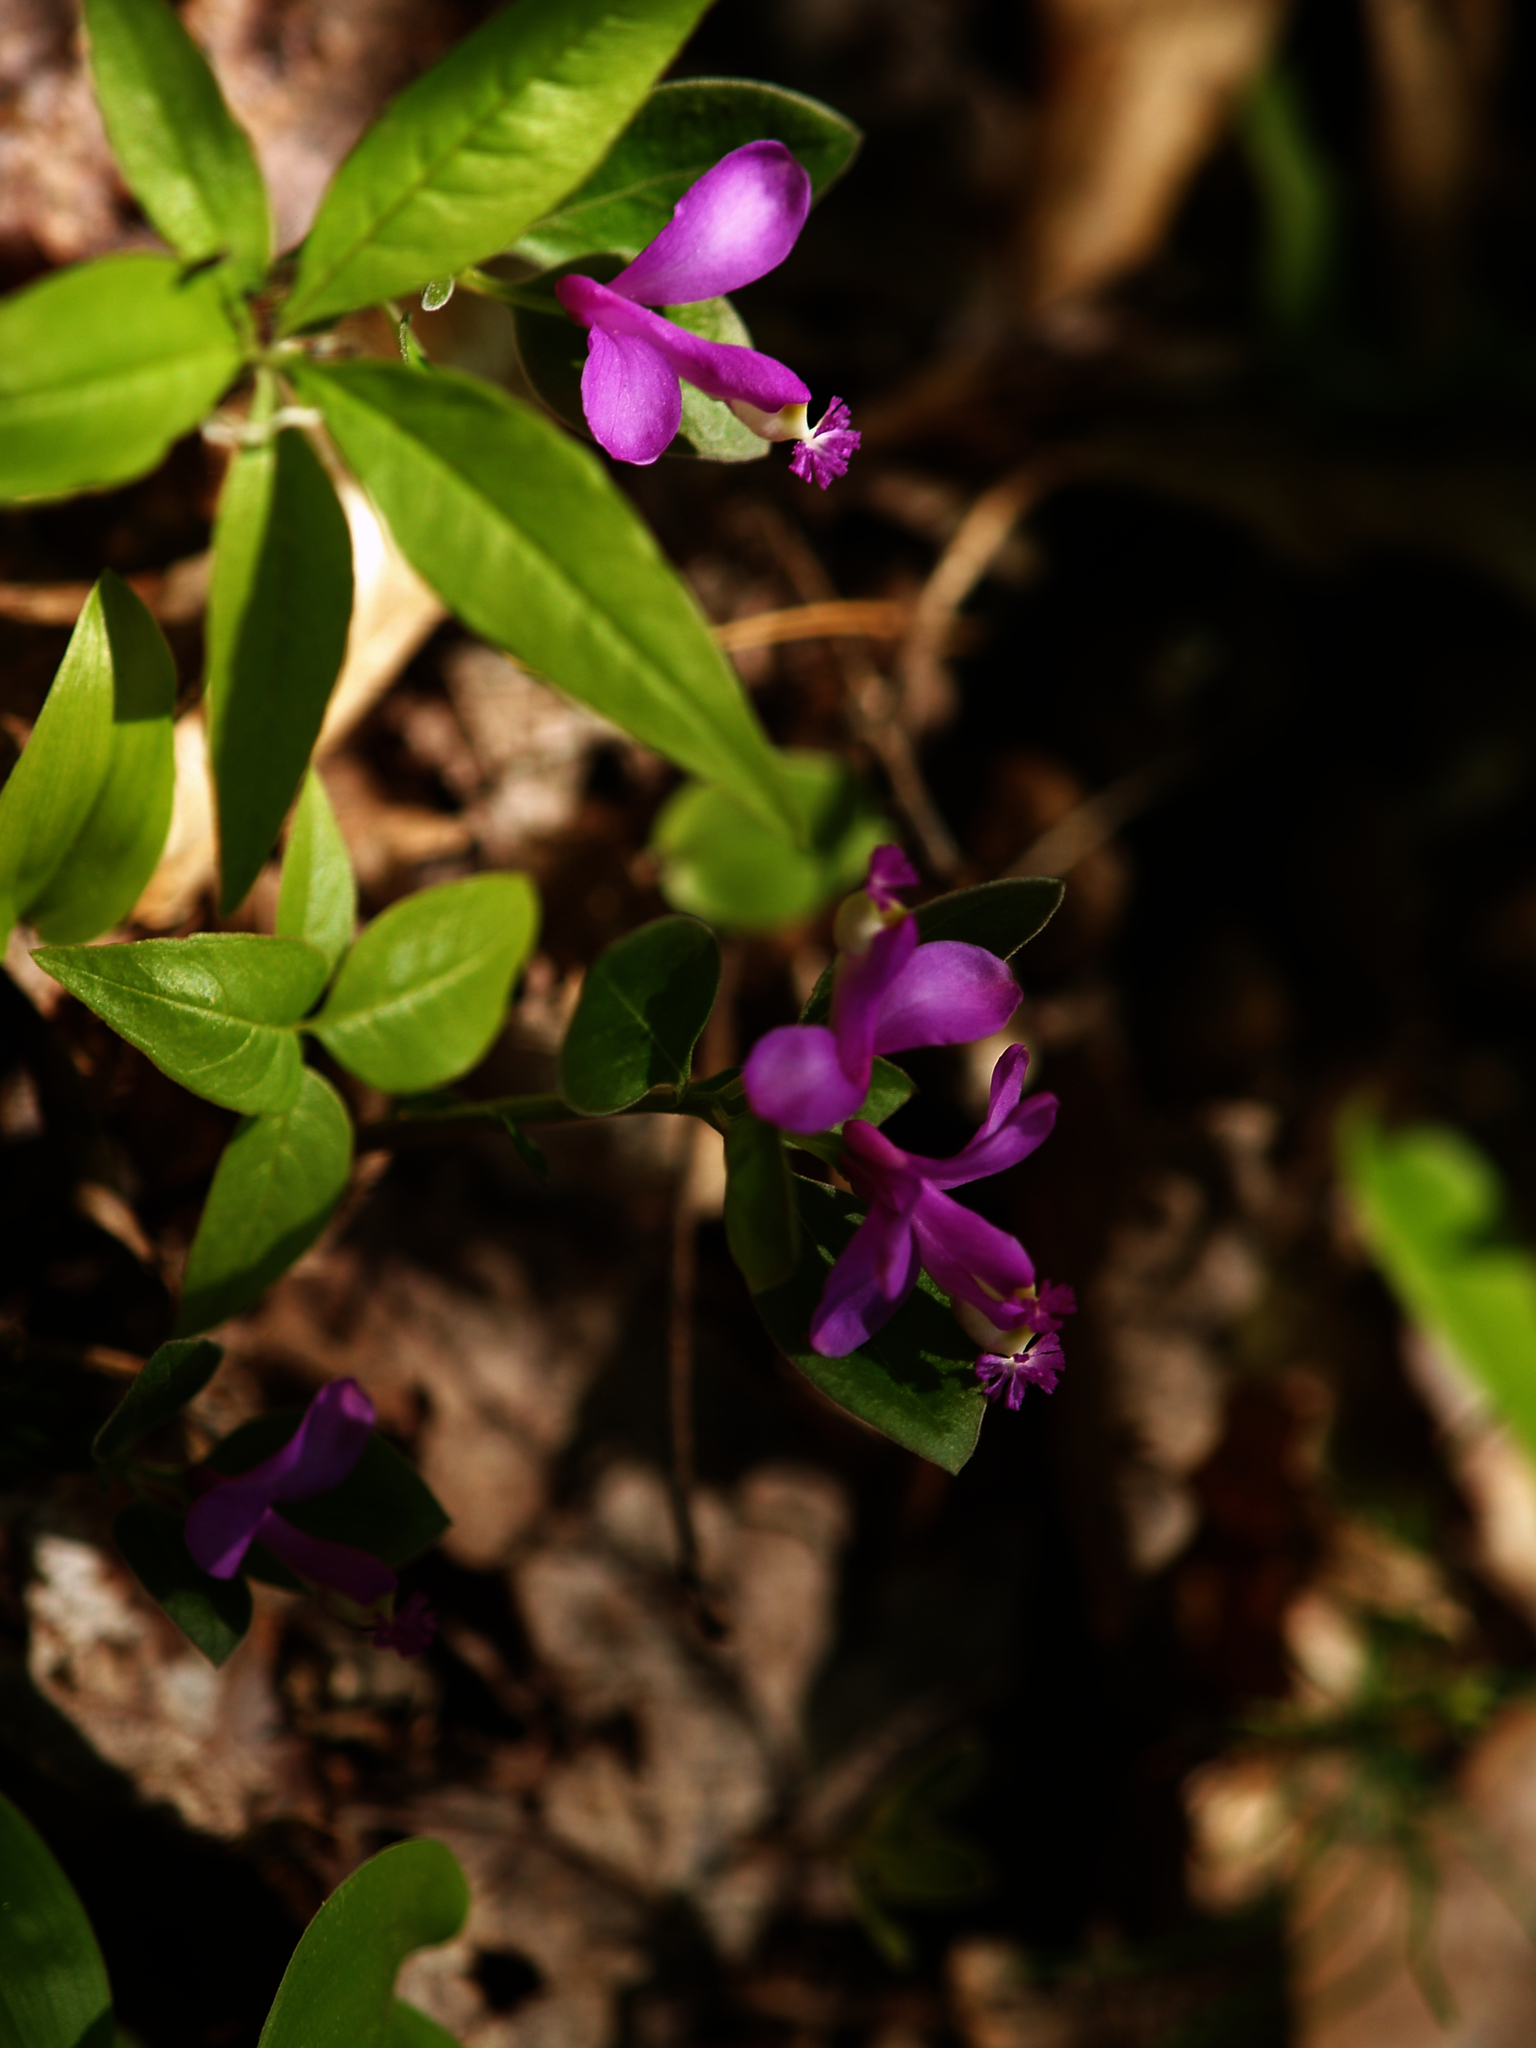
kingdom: Plantae
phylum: Tracheophyta
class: Magnoliopsida
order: Fabales
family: Polygalaceae
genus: Polygaloides
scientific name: Polygaloides paucifolia
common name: Bird-on-the-wing
